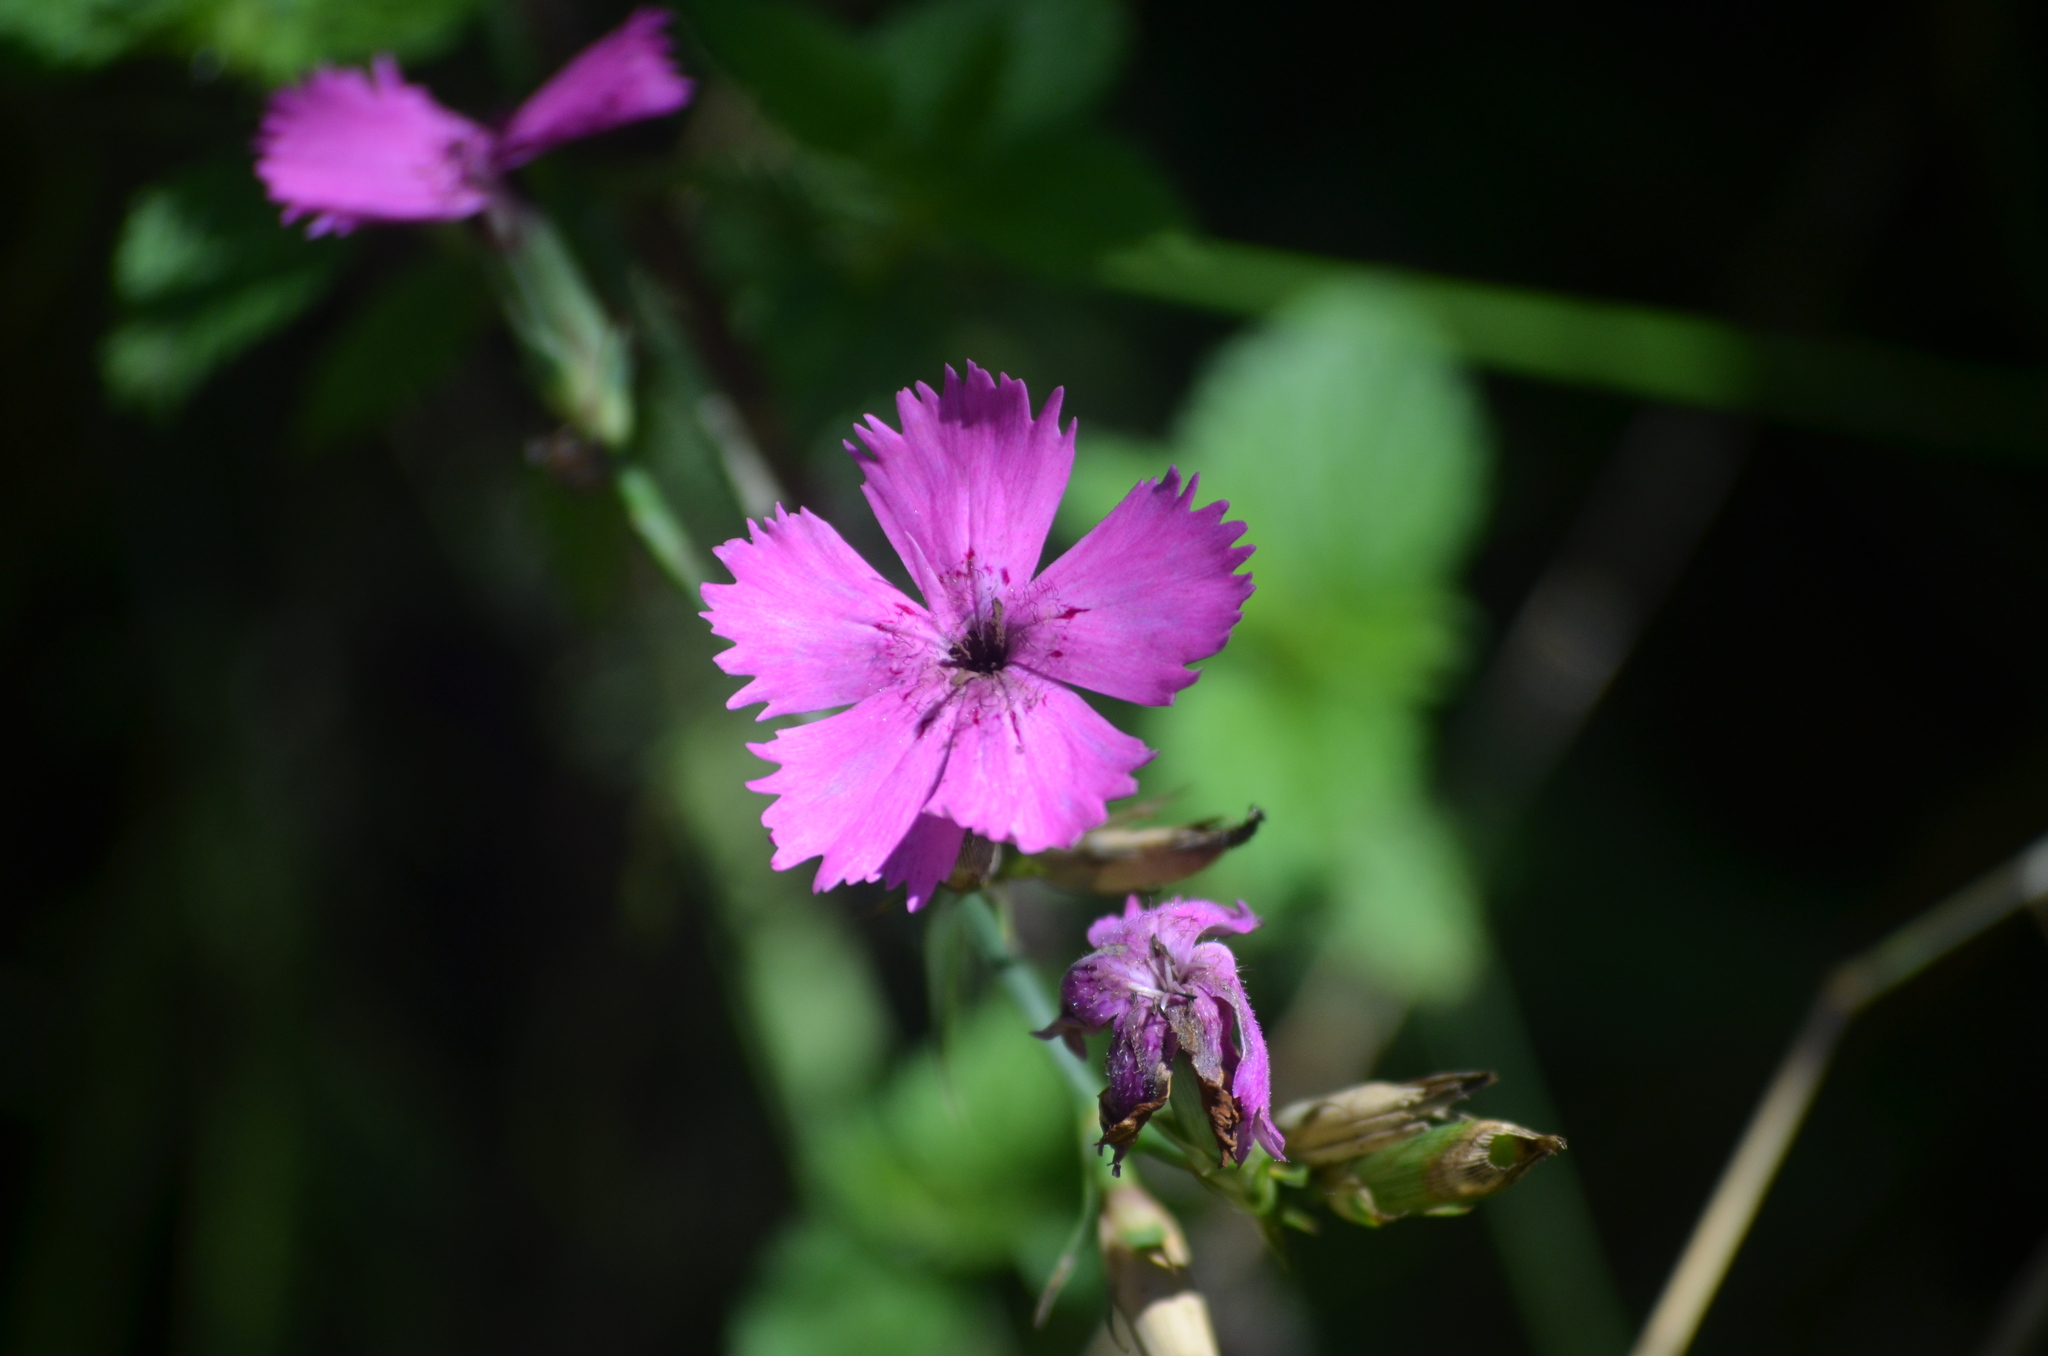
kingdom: Plantae
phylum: Tracheophyta
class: Magnoliopsida
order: Caryophyllales
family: Caryophyllaceae
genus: Dianthus
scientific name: Dianthus deltoides
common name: Maiden pink
